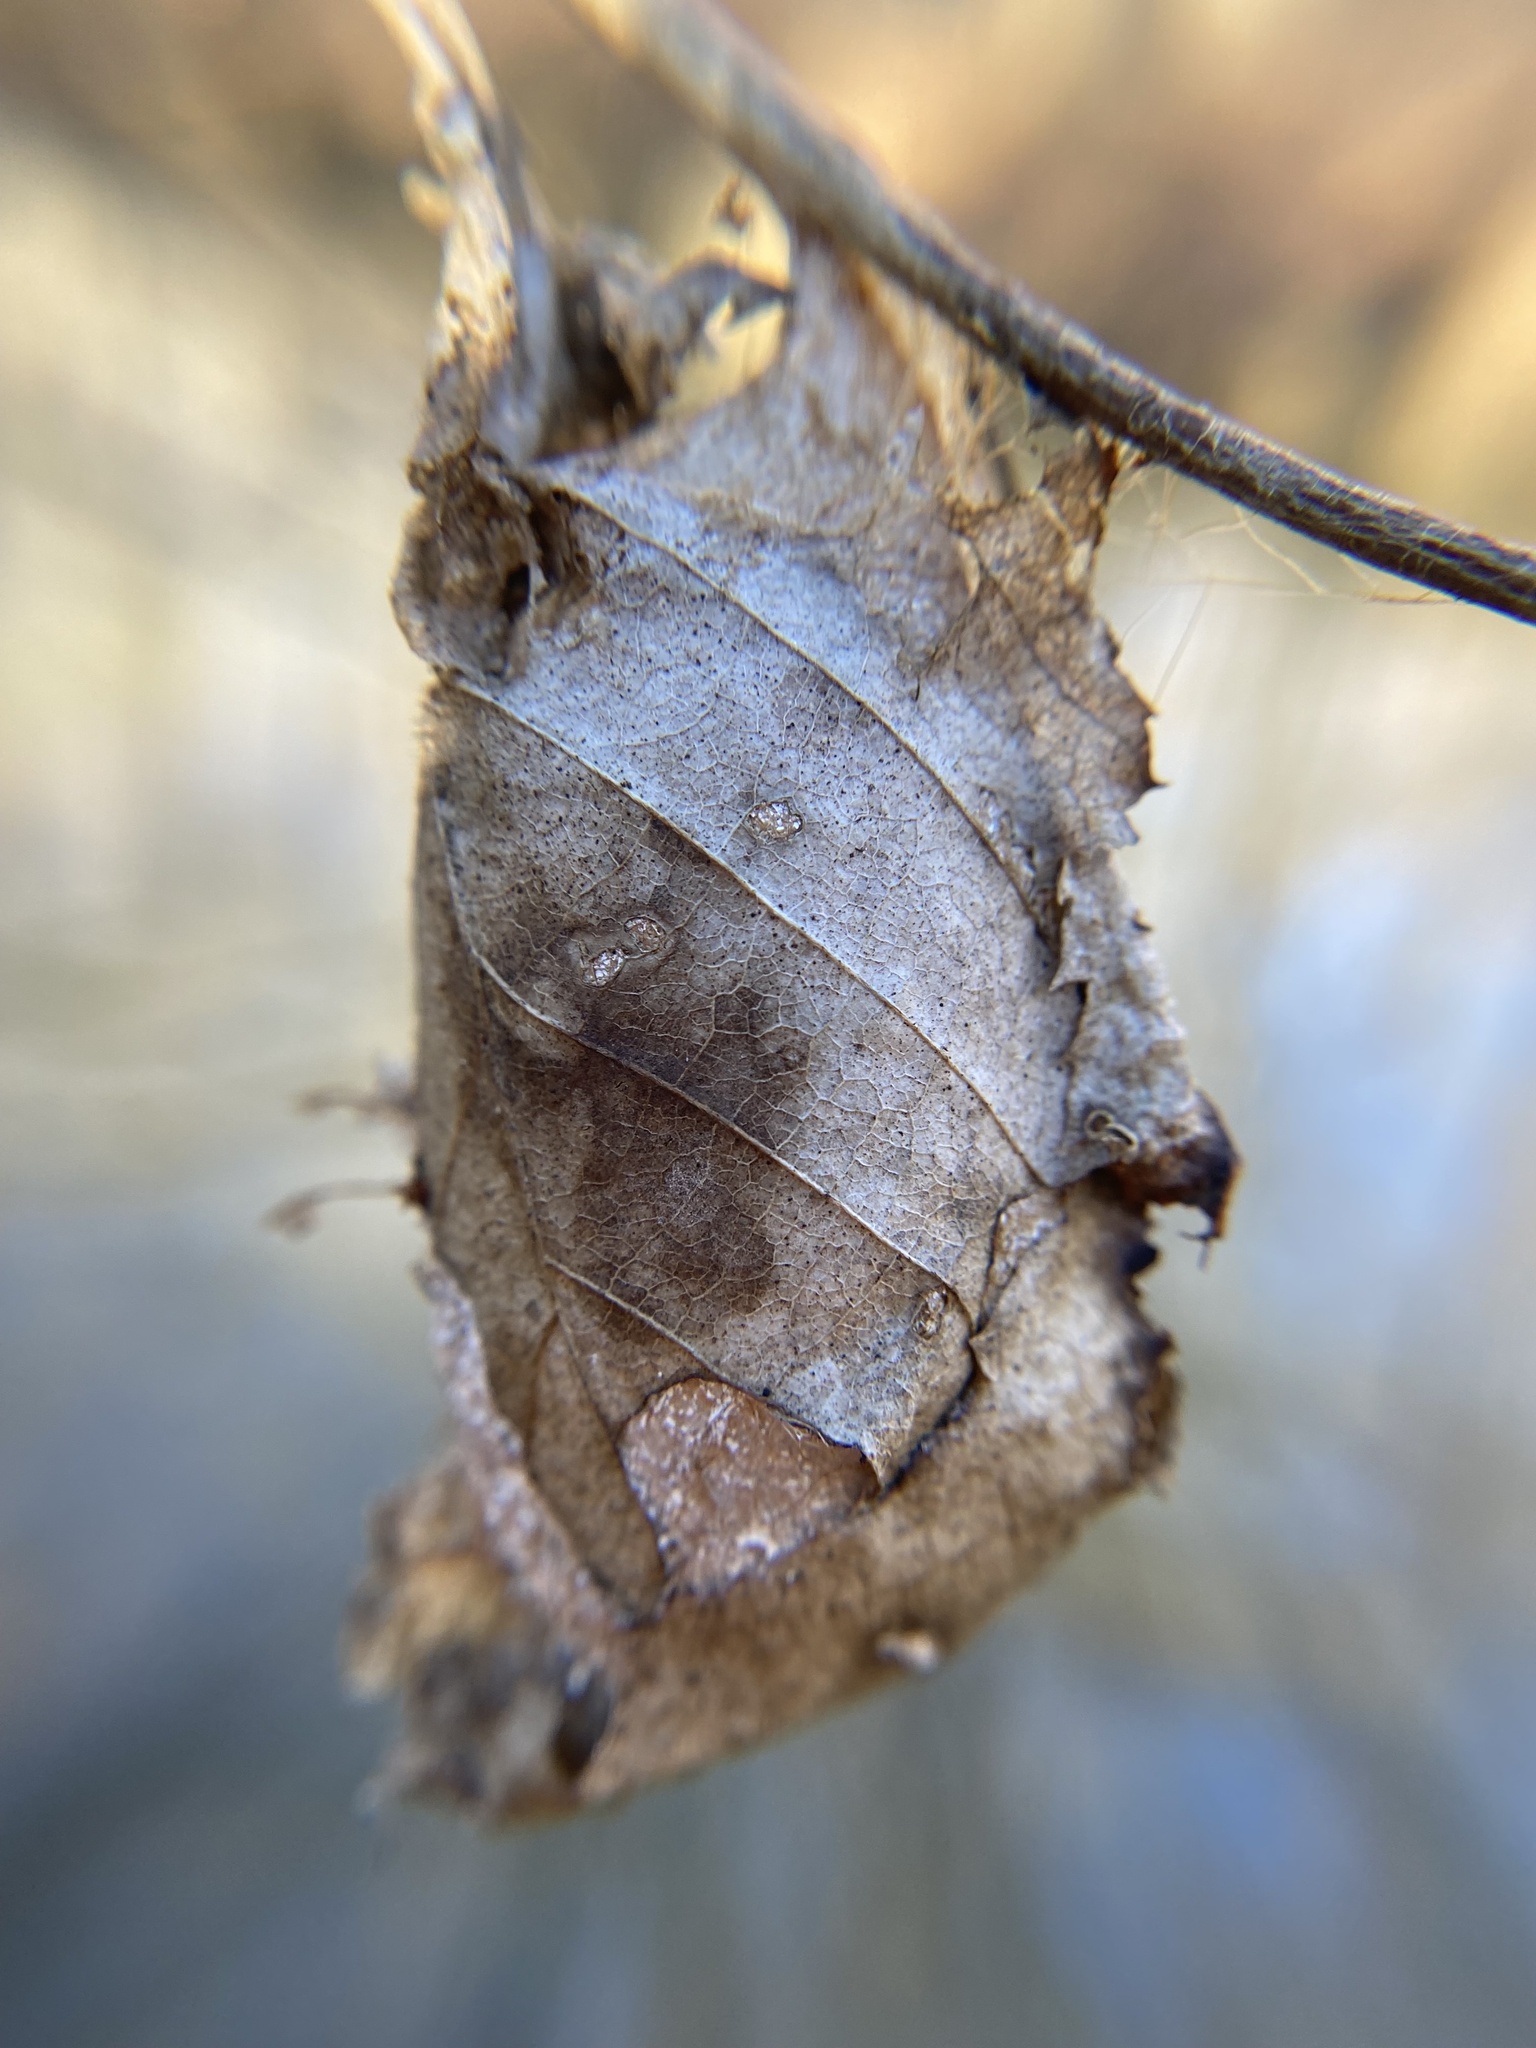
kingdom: Animalia
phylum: Arthropoda
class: Insecta
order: Lepidoptera
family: Saturniidae
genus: Antheraea
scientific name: Antheraea polyphemus
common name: Polyphemus moth
